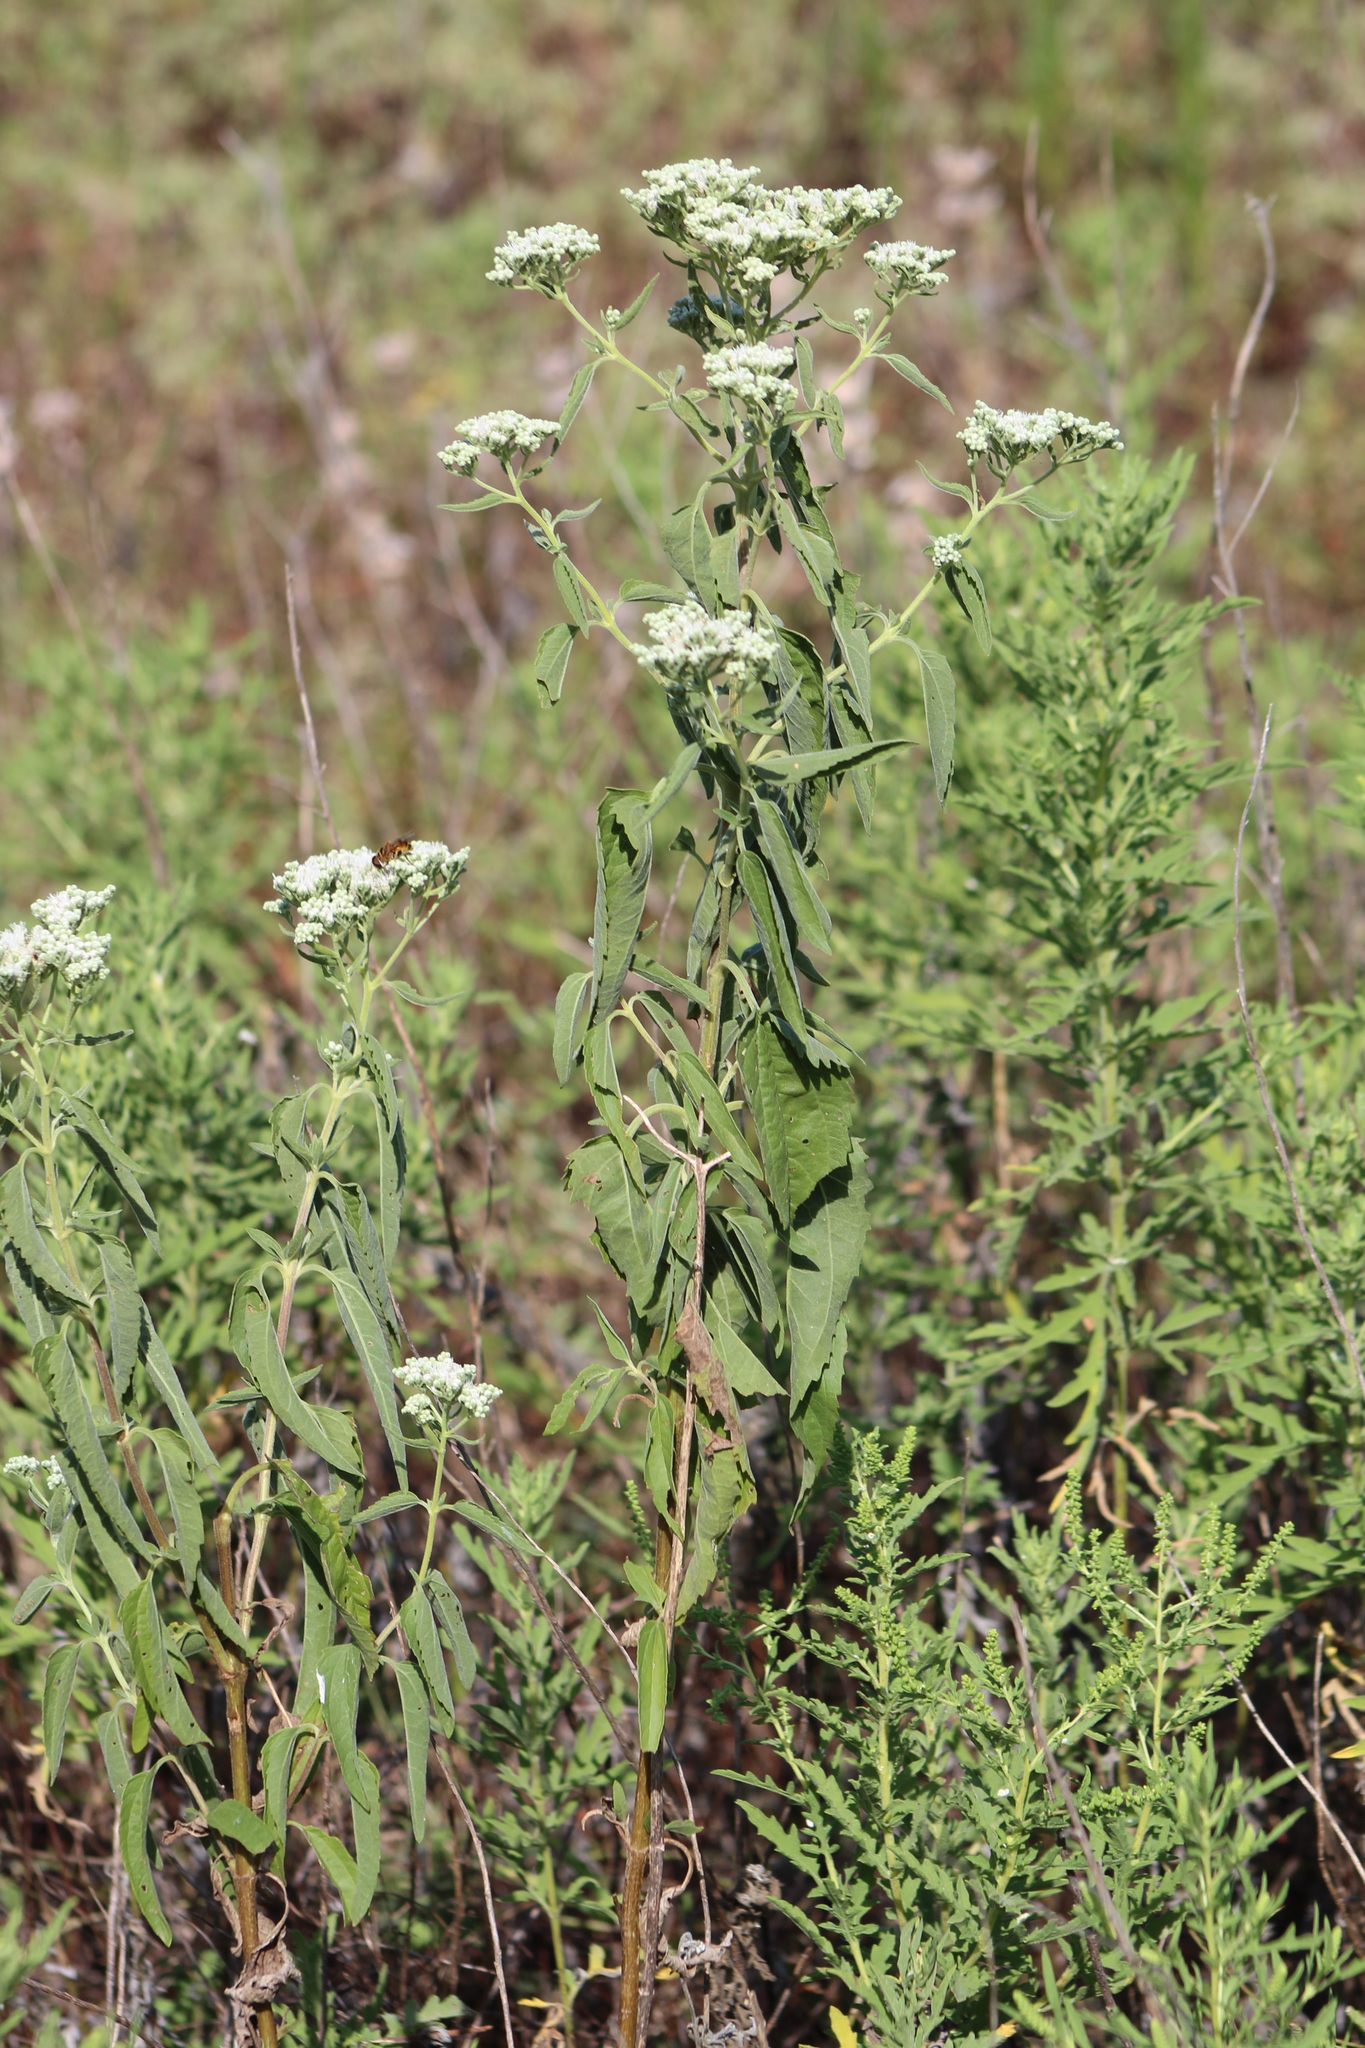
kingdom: Plantae
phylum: Tracheophyta
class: Magnoliopsida
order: Asterales
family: Asteraceae
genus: Eupatorium
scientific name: Eupatorium serotinum
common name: Late boneset
